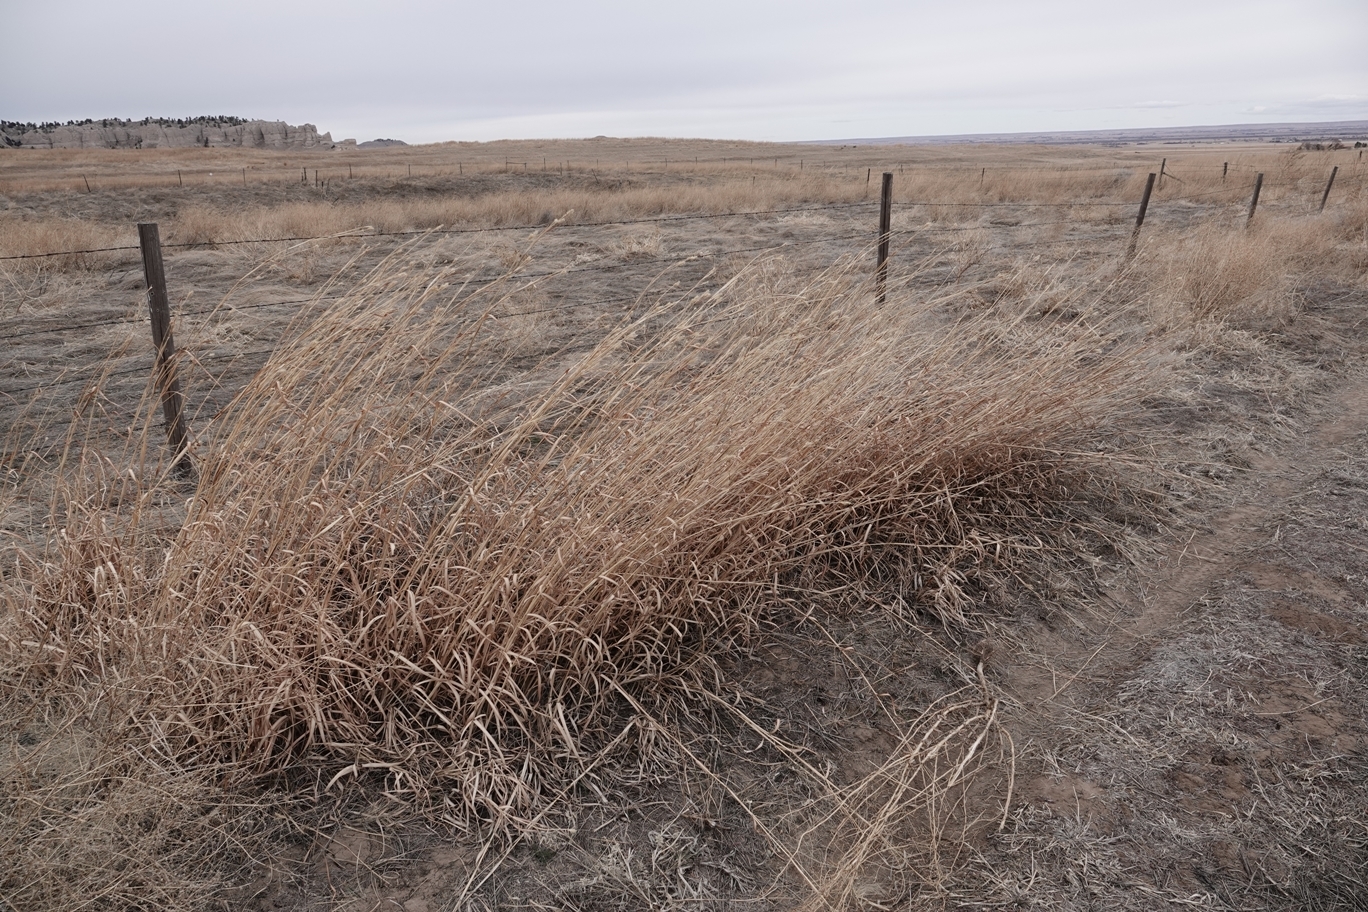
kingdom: Plantae
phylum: Tracheophyta
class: Liliopsida
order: Poales
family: Poaceae
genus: Andropogon
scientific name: Andropogon hallii
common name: Sand bluestem
